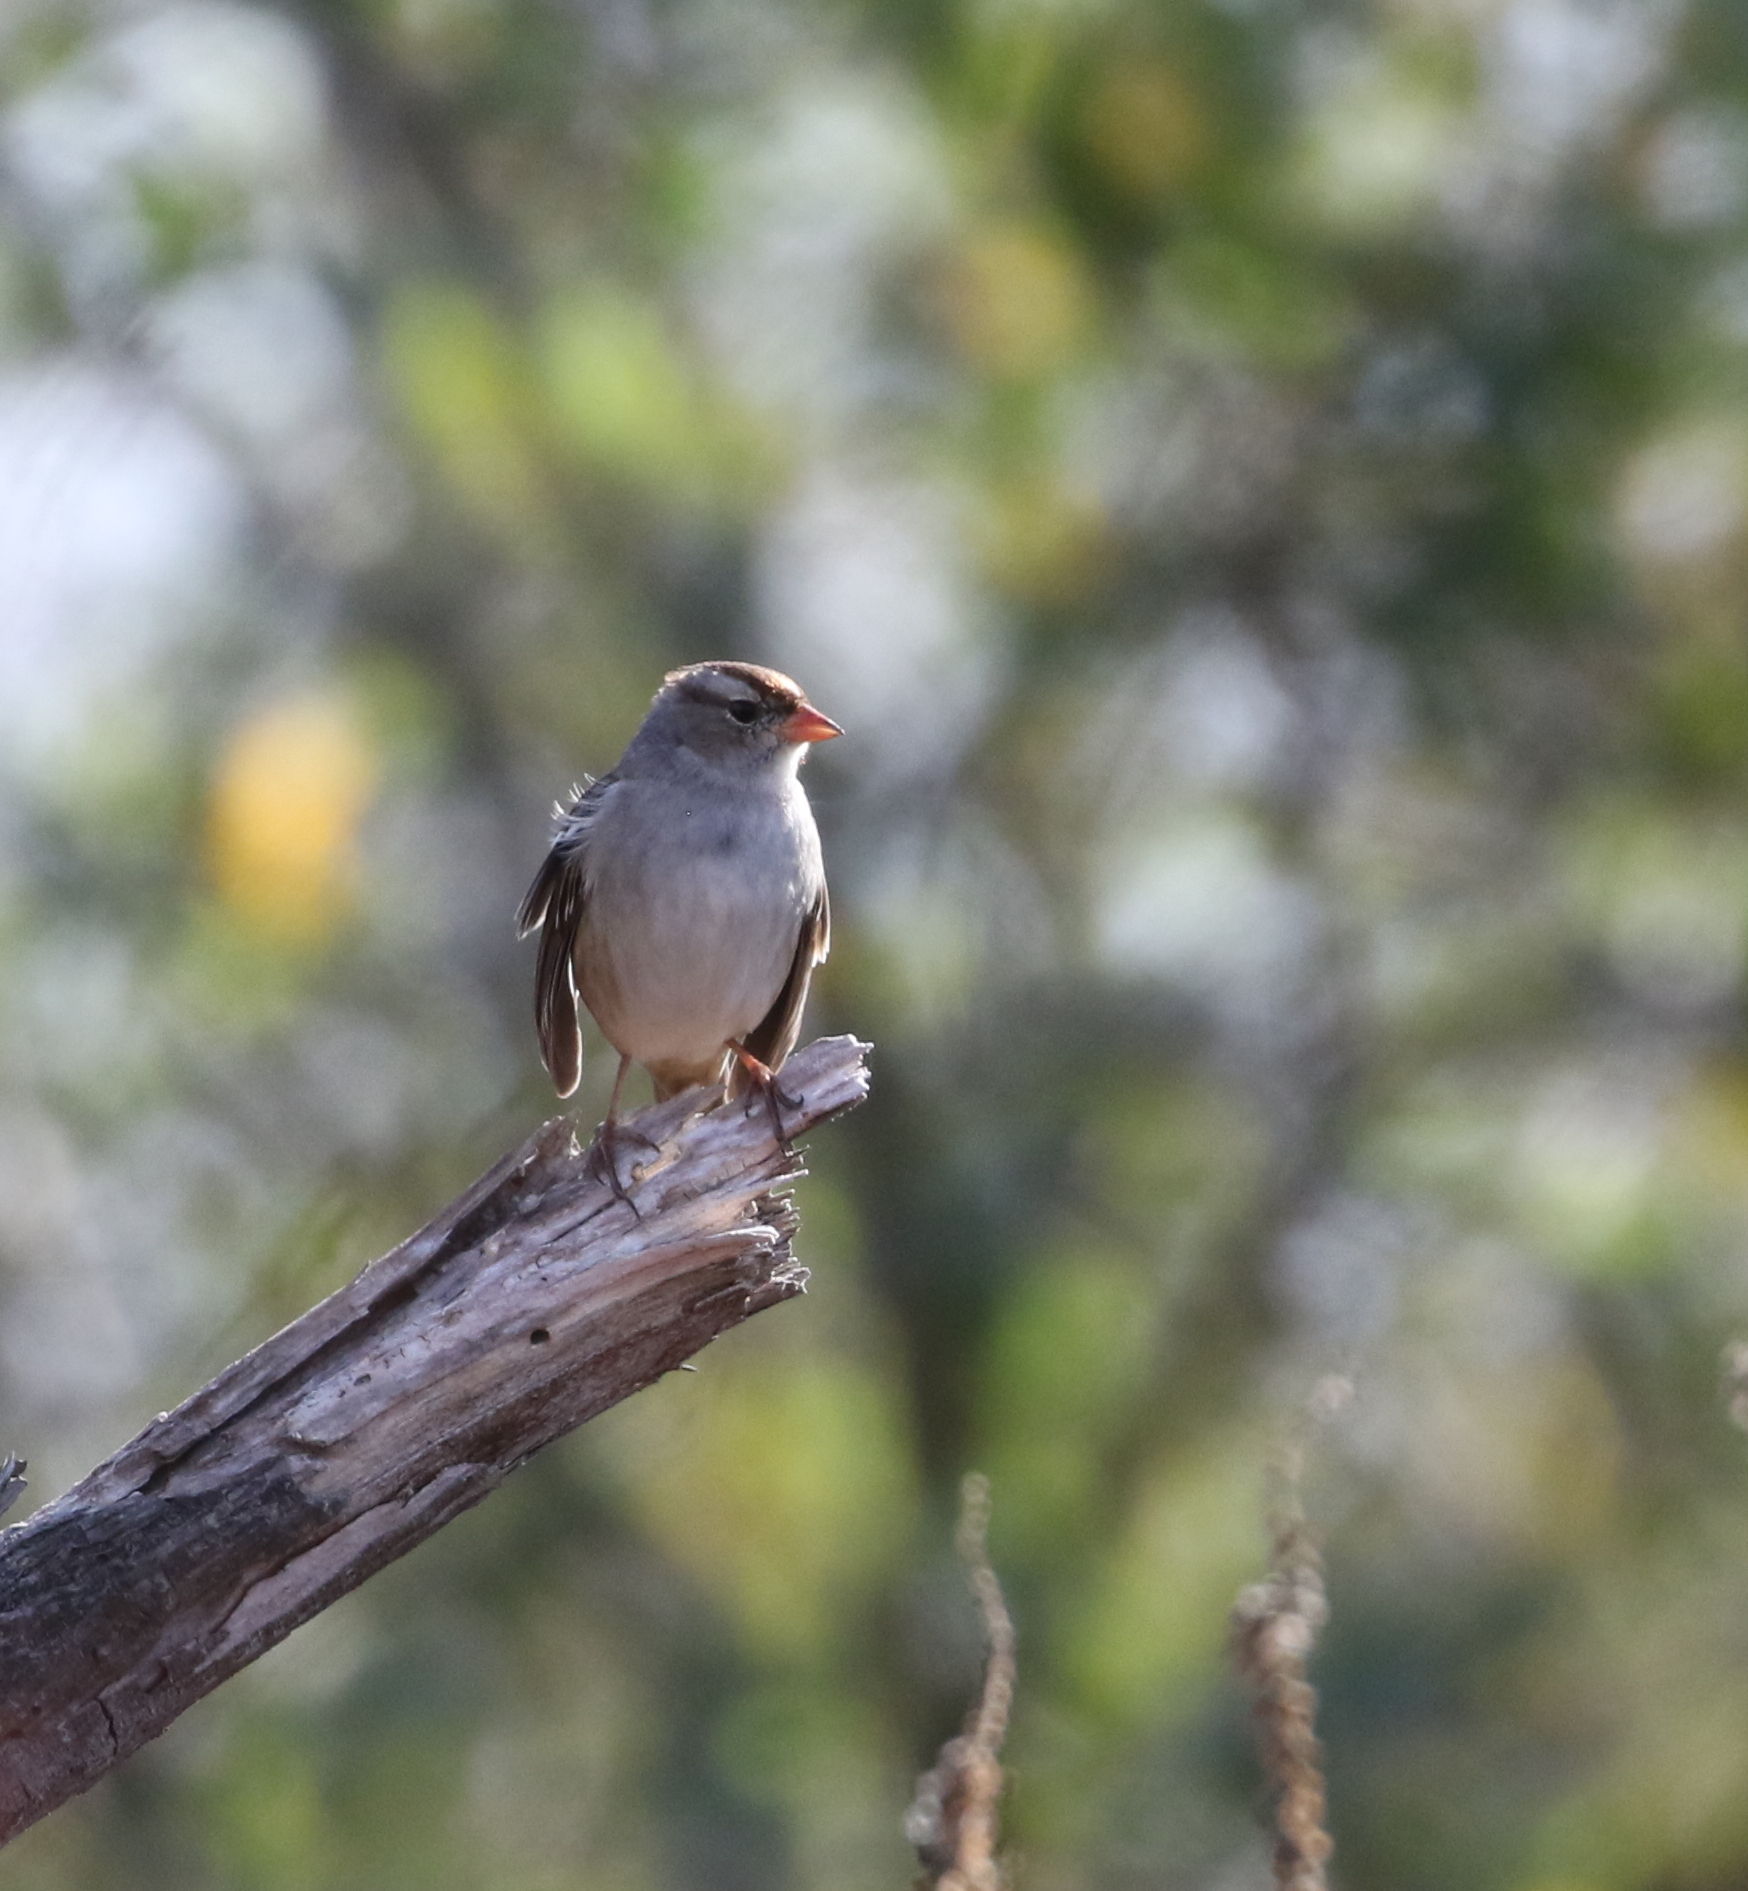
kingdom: Animalia
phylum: Chordata
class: Aves
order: Passeriformes
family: Passerellidae
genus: Zonotrichia
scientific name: Zonotrichia leucophrys
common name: White-crowned sparrow
